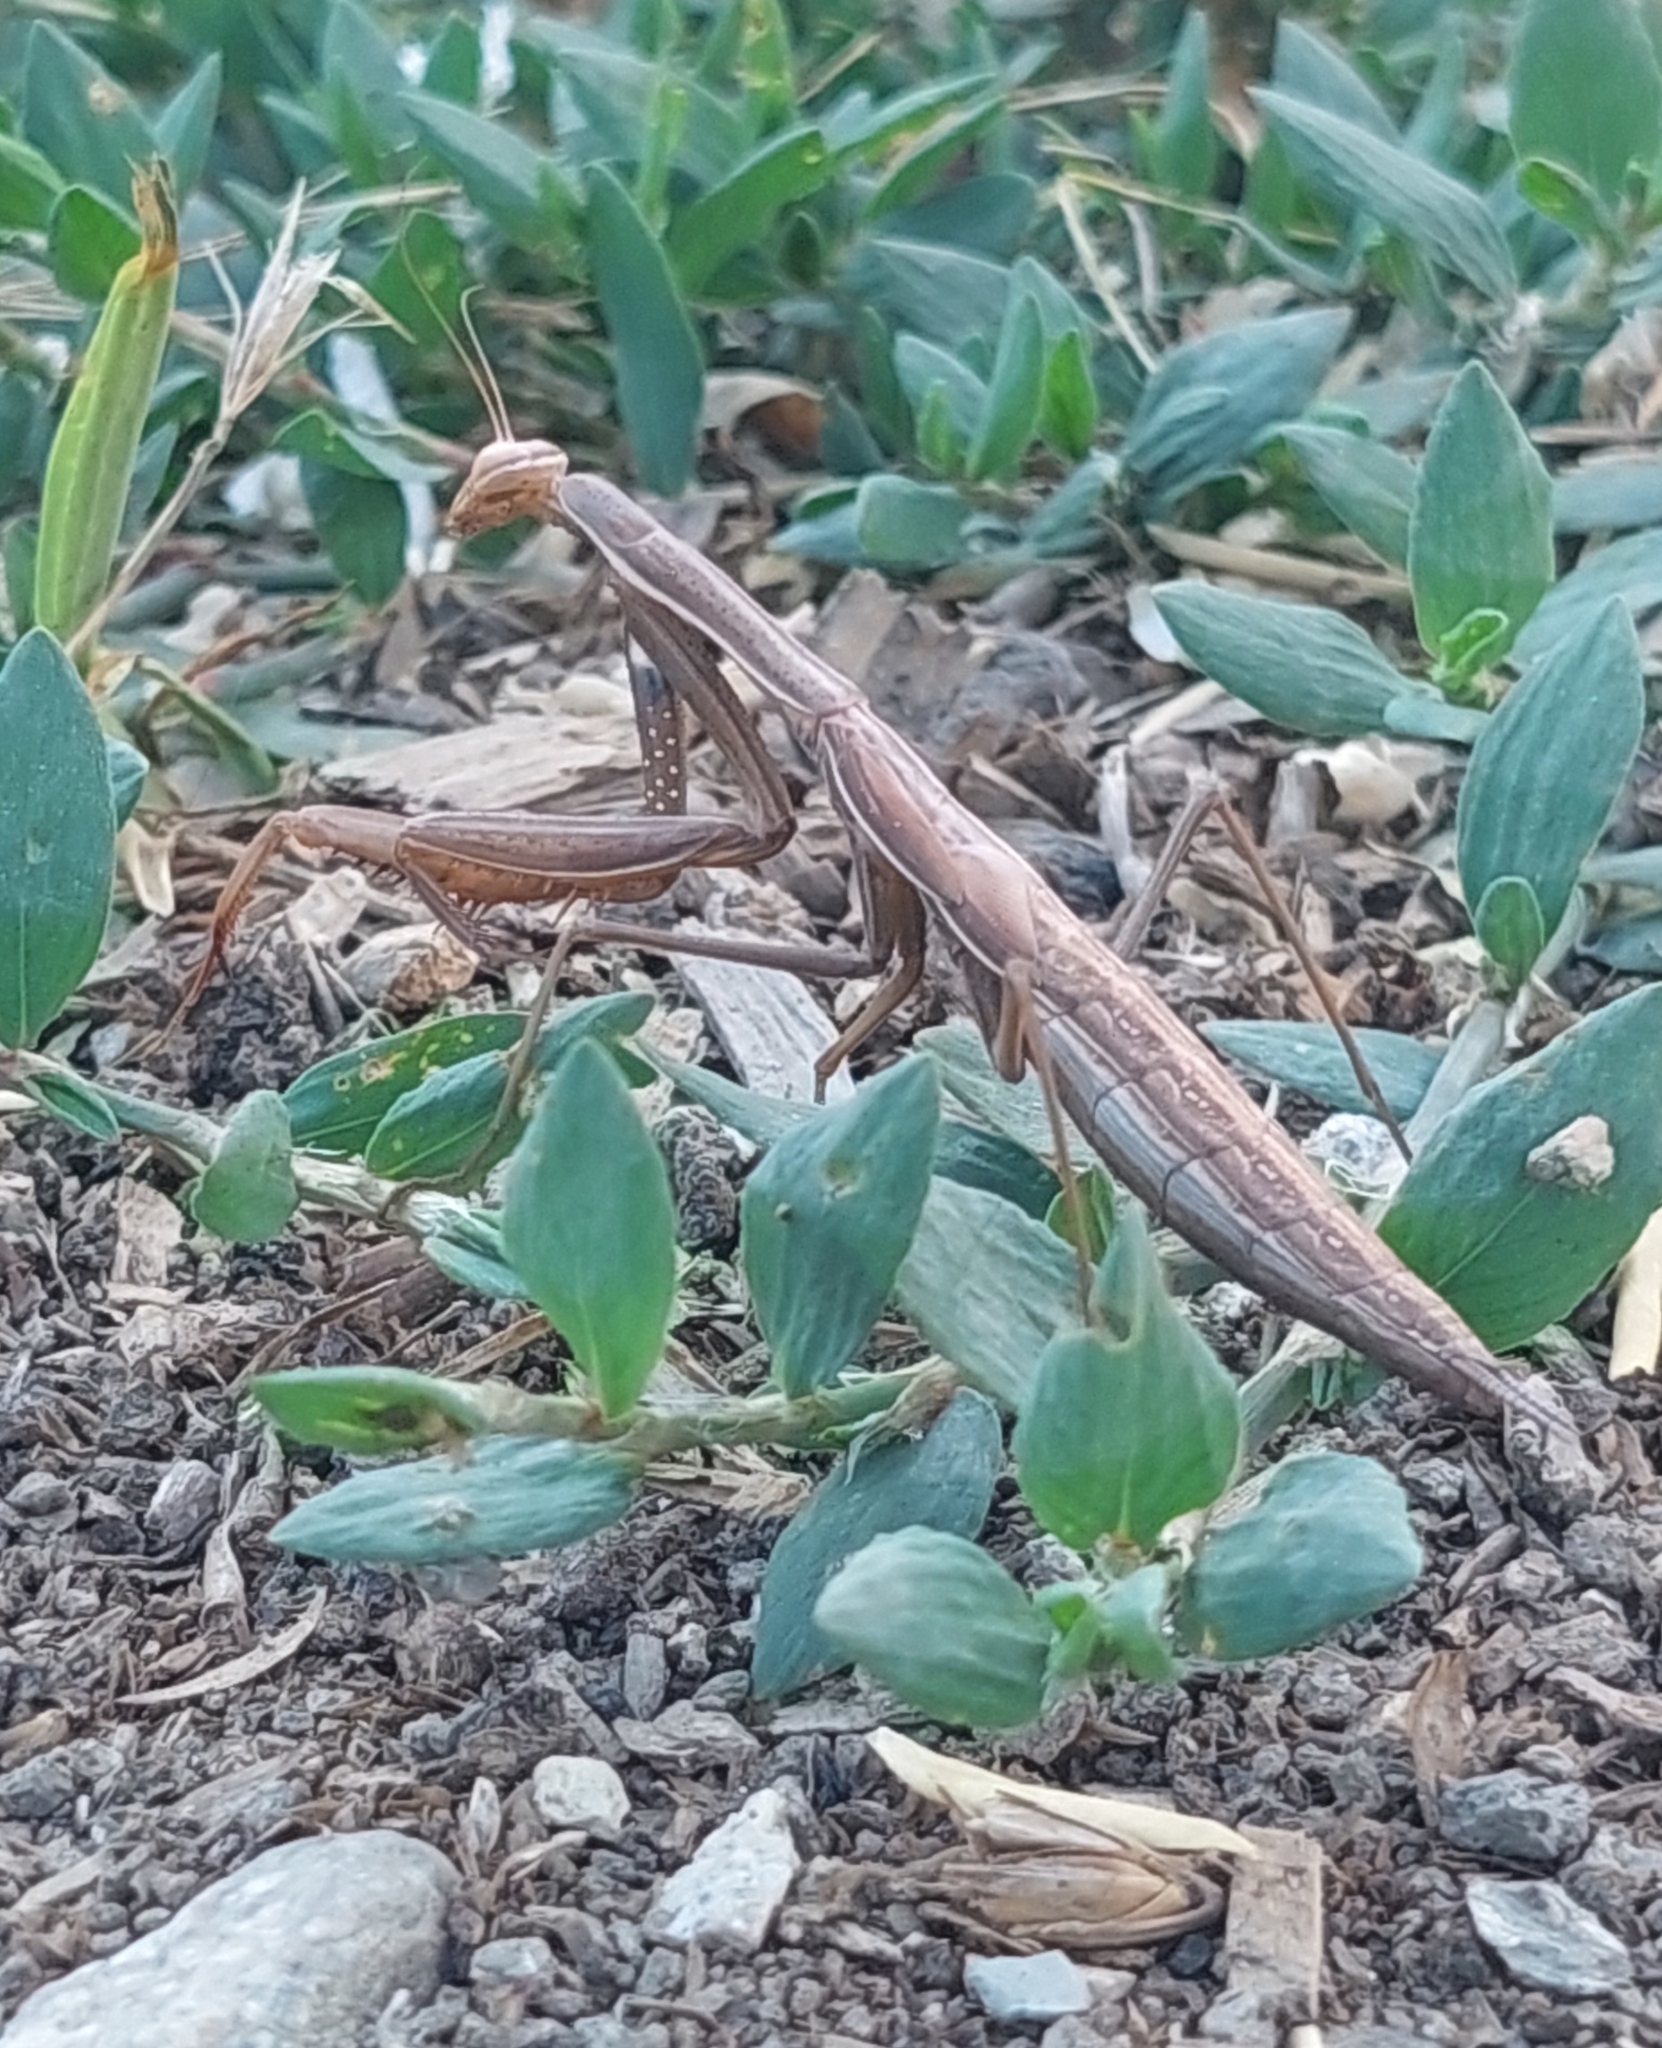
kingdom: Animalia
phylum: Arthropoda
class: Insecta
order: Mantodea
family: Mantidae
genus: Mantis
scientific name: Mantis religiosa
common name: Praying mantis
